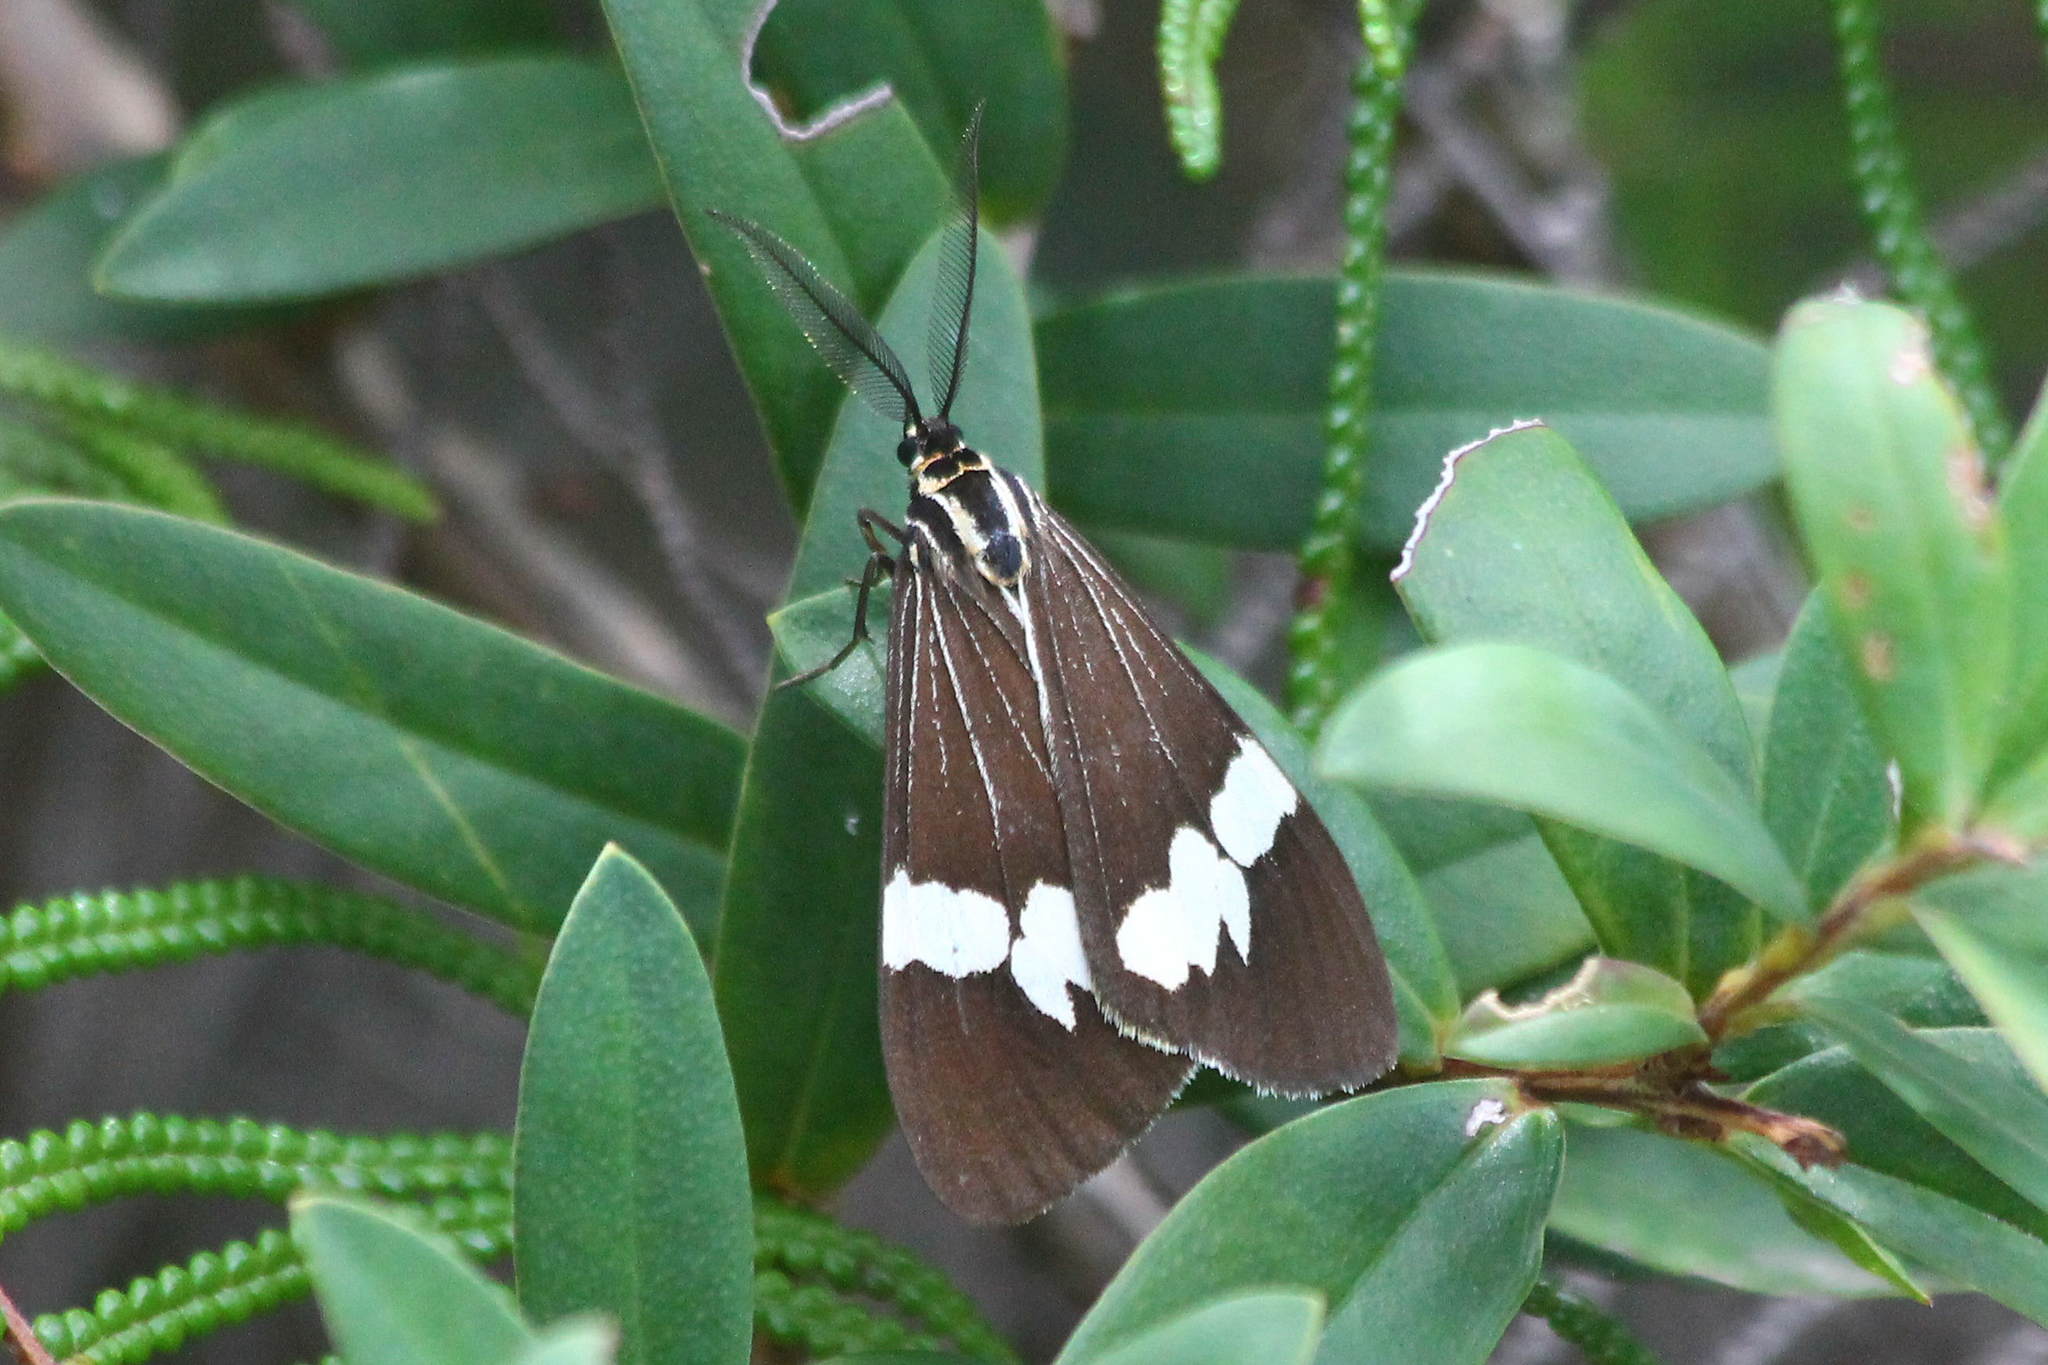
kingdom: Animalia
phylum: Arthropoda
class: Insecta
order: Lepidoptera
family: Erebidae
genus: Nyctemera
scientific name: Nyctemera amicus
